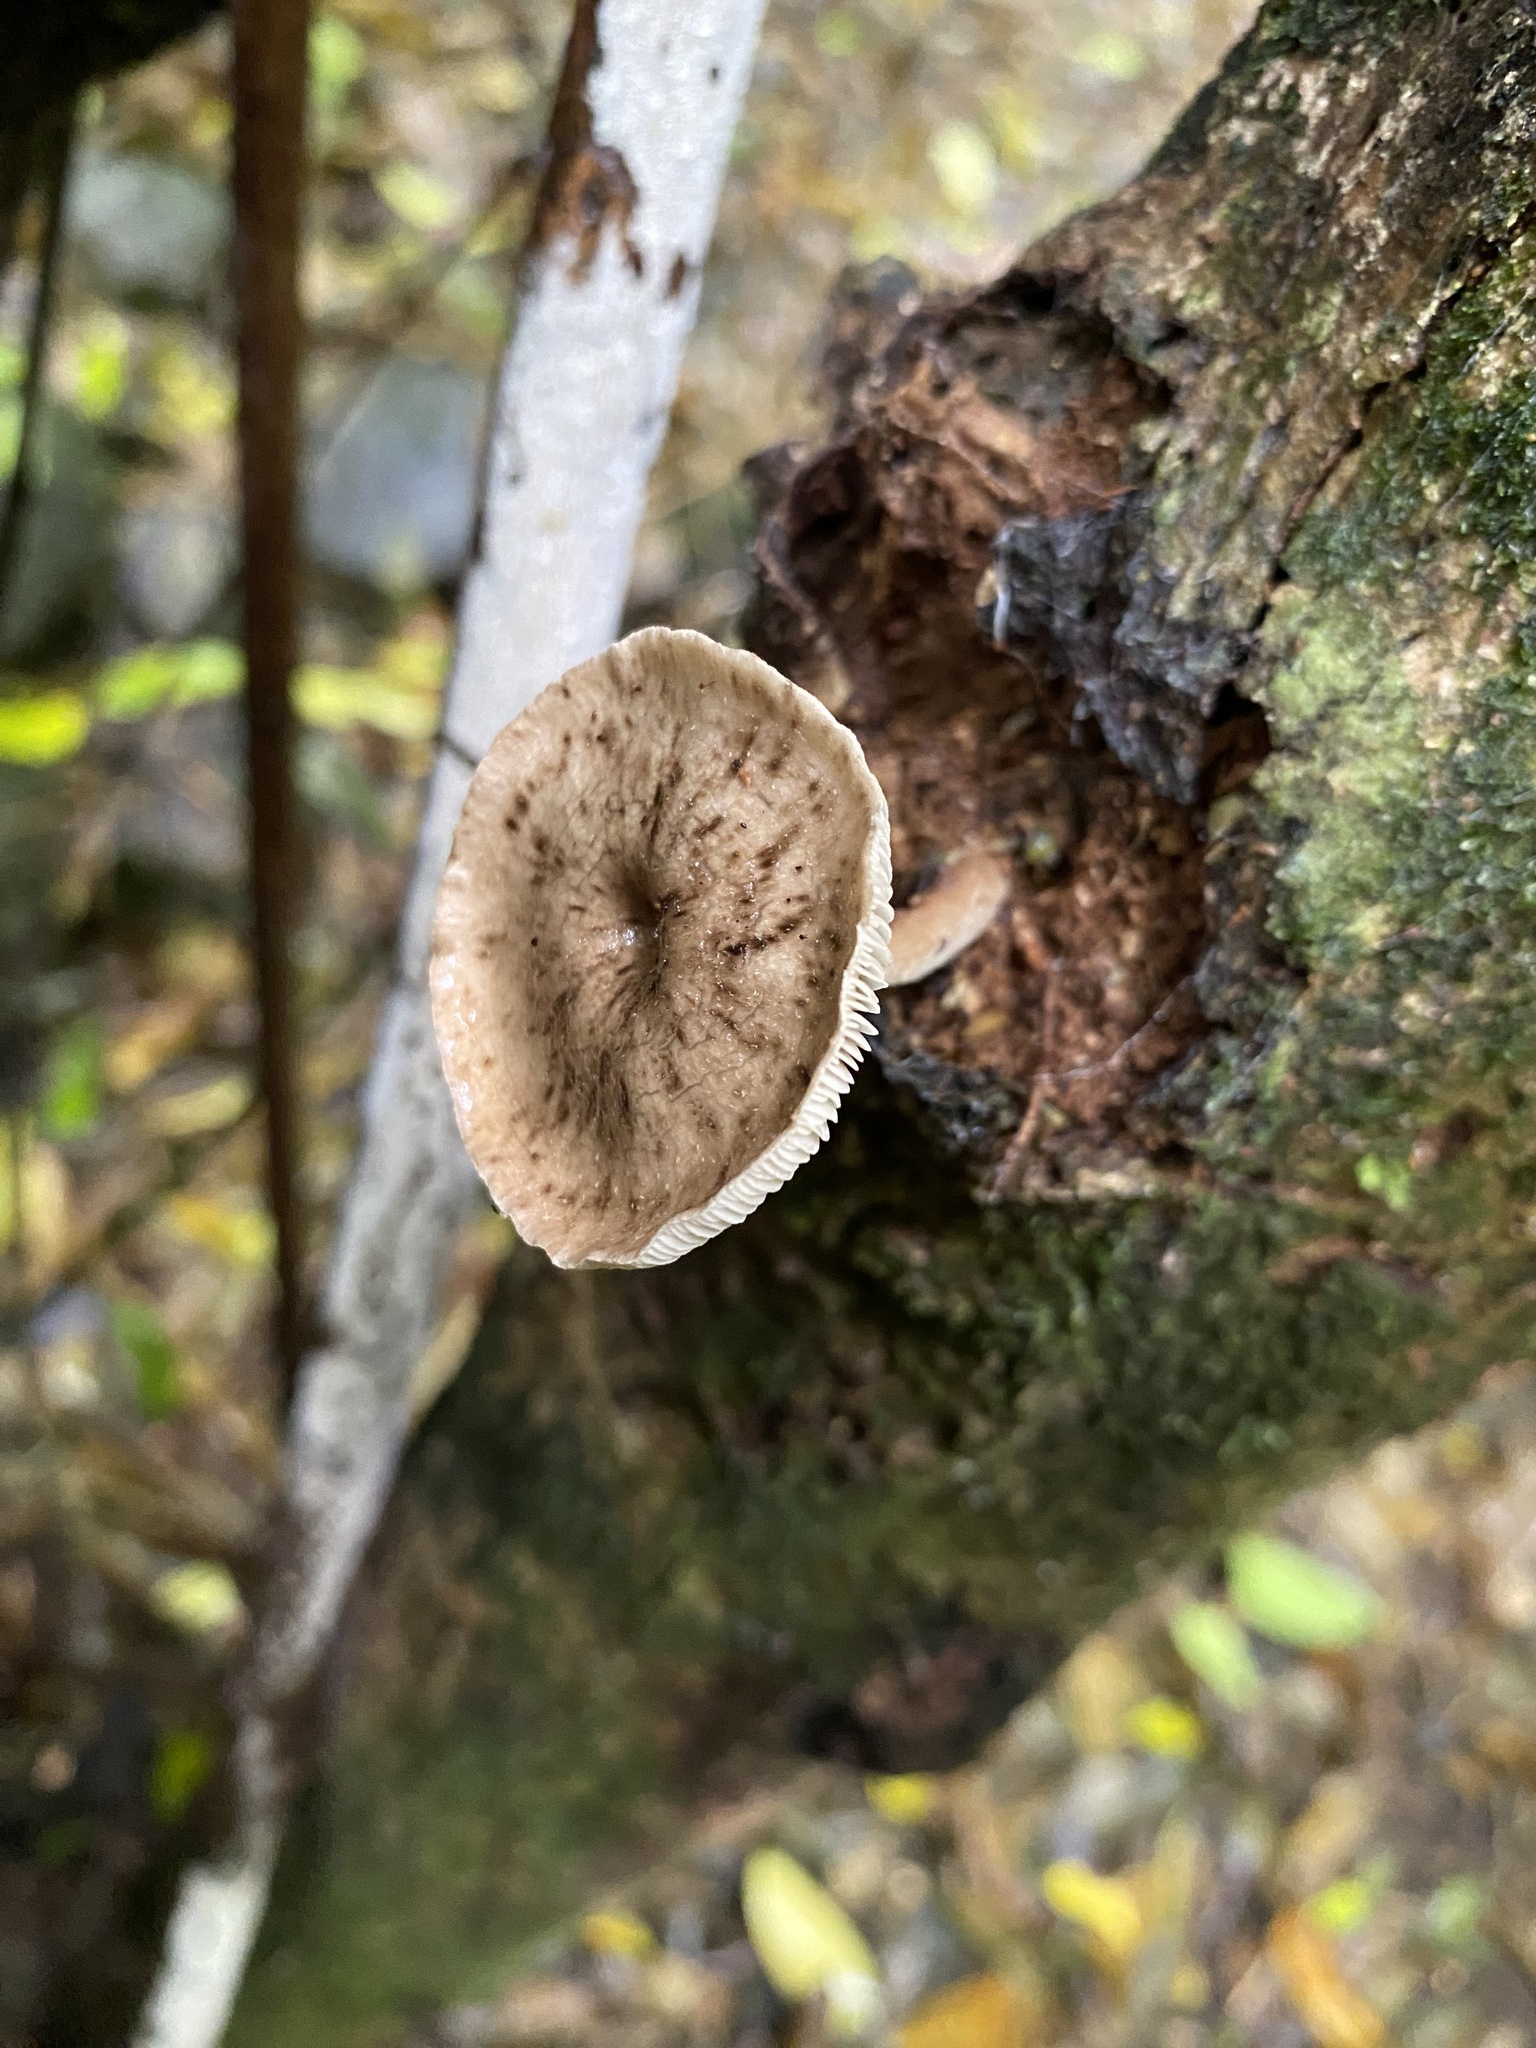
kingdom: Fungi
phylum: Basidiomycota
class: Agaricomycetes
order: Agaricales
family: Pleurotaceae
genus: Hohenbuehelia
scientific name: Hohenbuehelia
